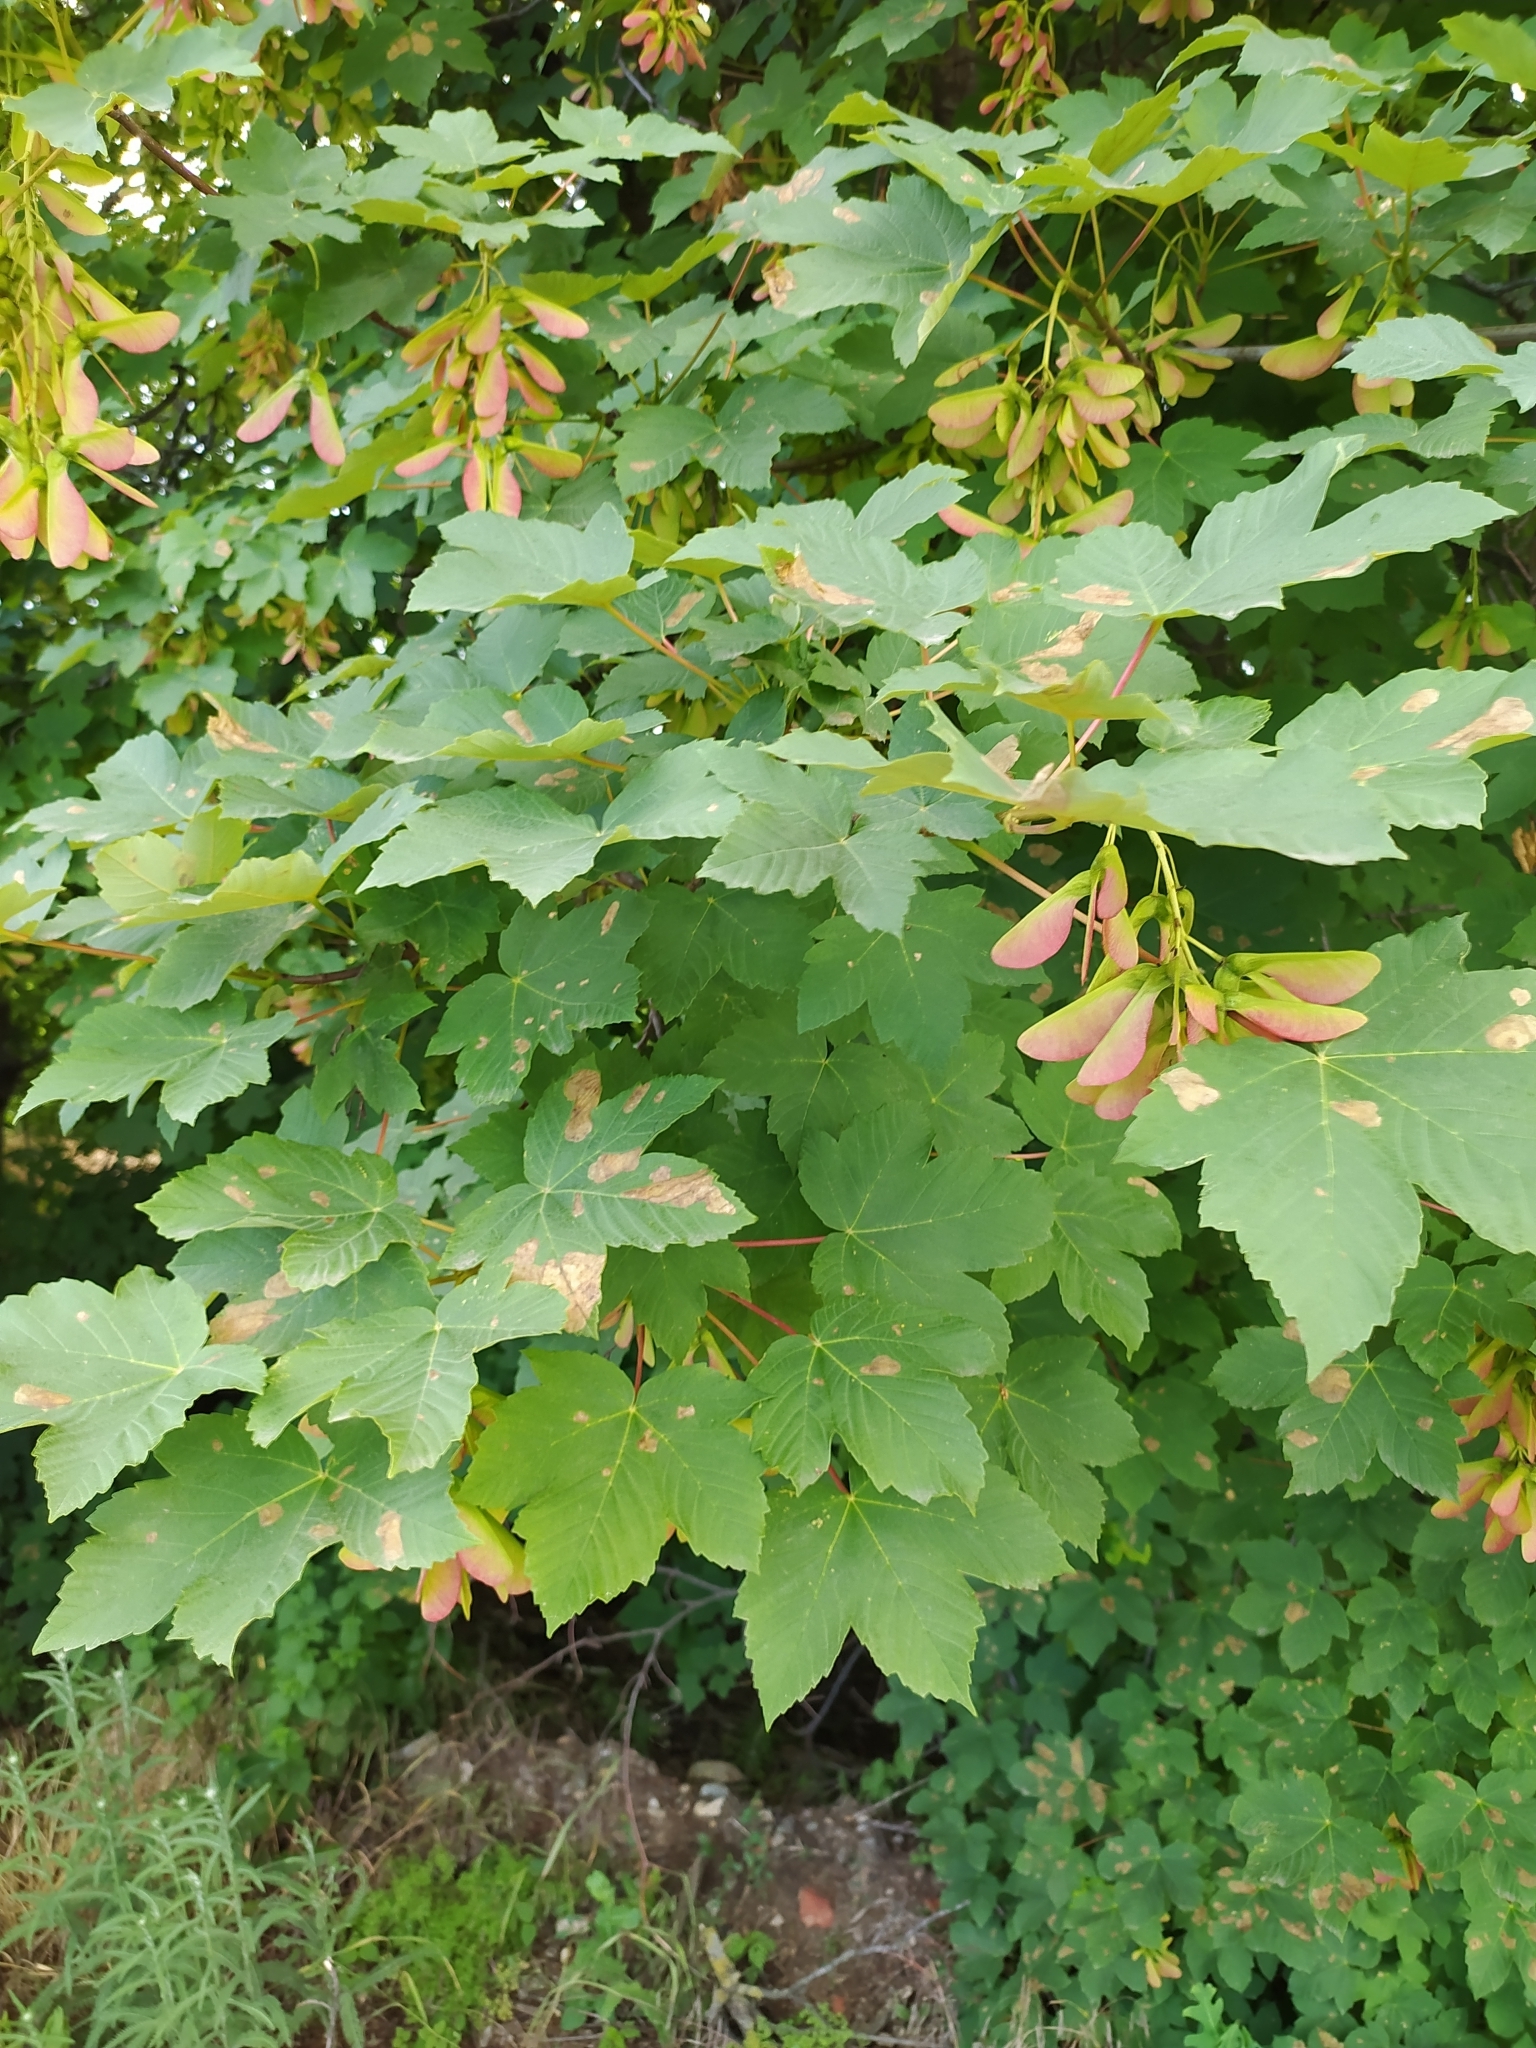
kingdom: Plantae
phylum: Tracheophyta
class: Magnoliopsida
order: Sapindales
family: Sapindaceae
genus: Acer
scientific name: Acer pseudoplatanus
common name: Sycamore
